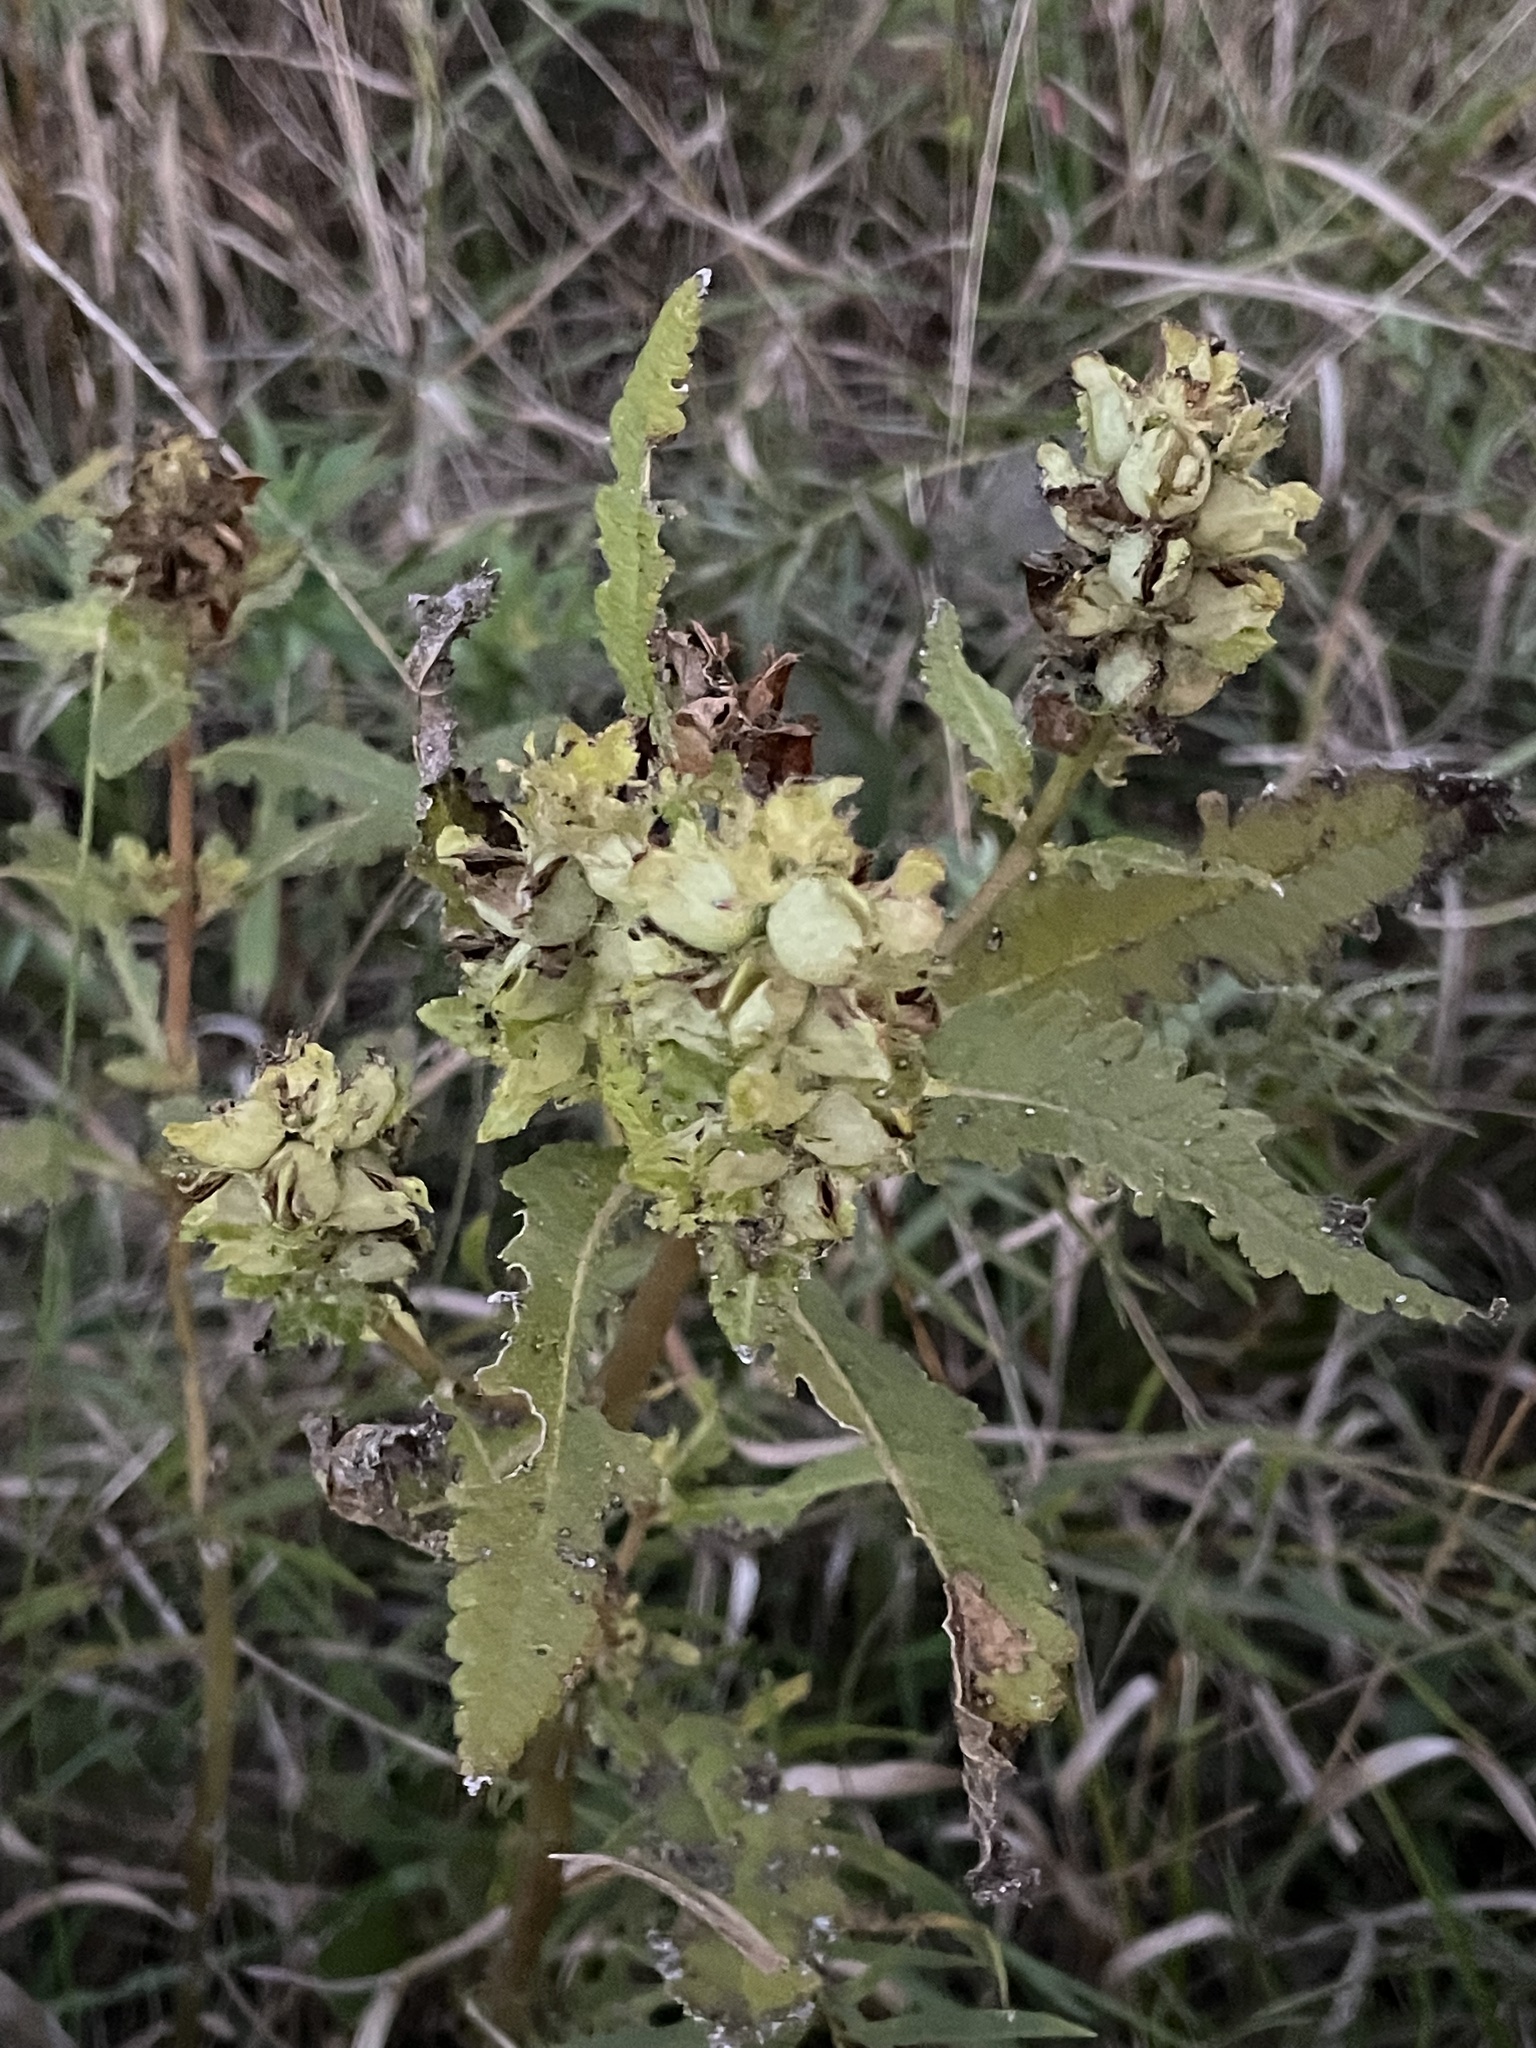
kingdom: Plantae
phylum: Tracheophyta
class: Magnoliopsida
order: Lamiales
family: Orobanchaceae
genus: Pedicularis
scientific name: Pedicularis lanceolata
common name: Swamp lousewort
